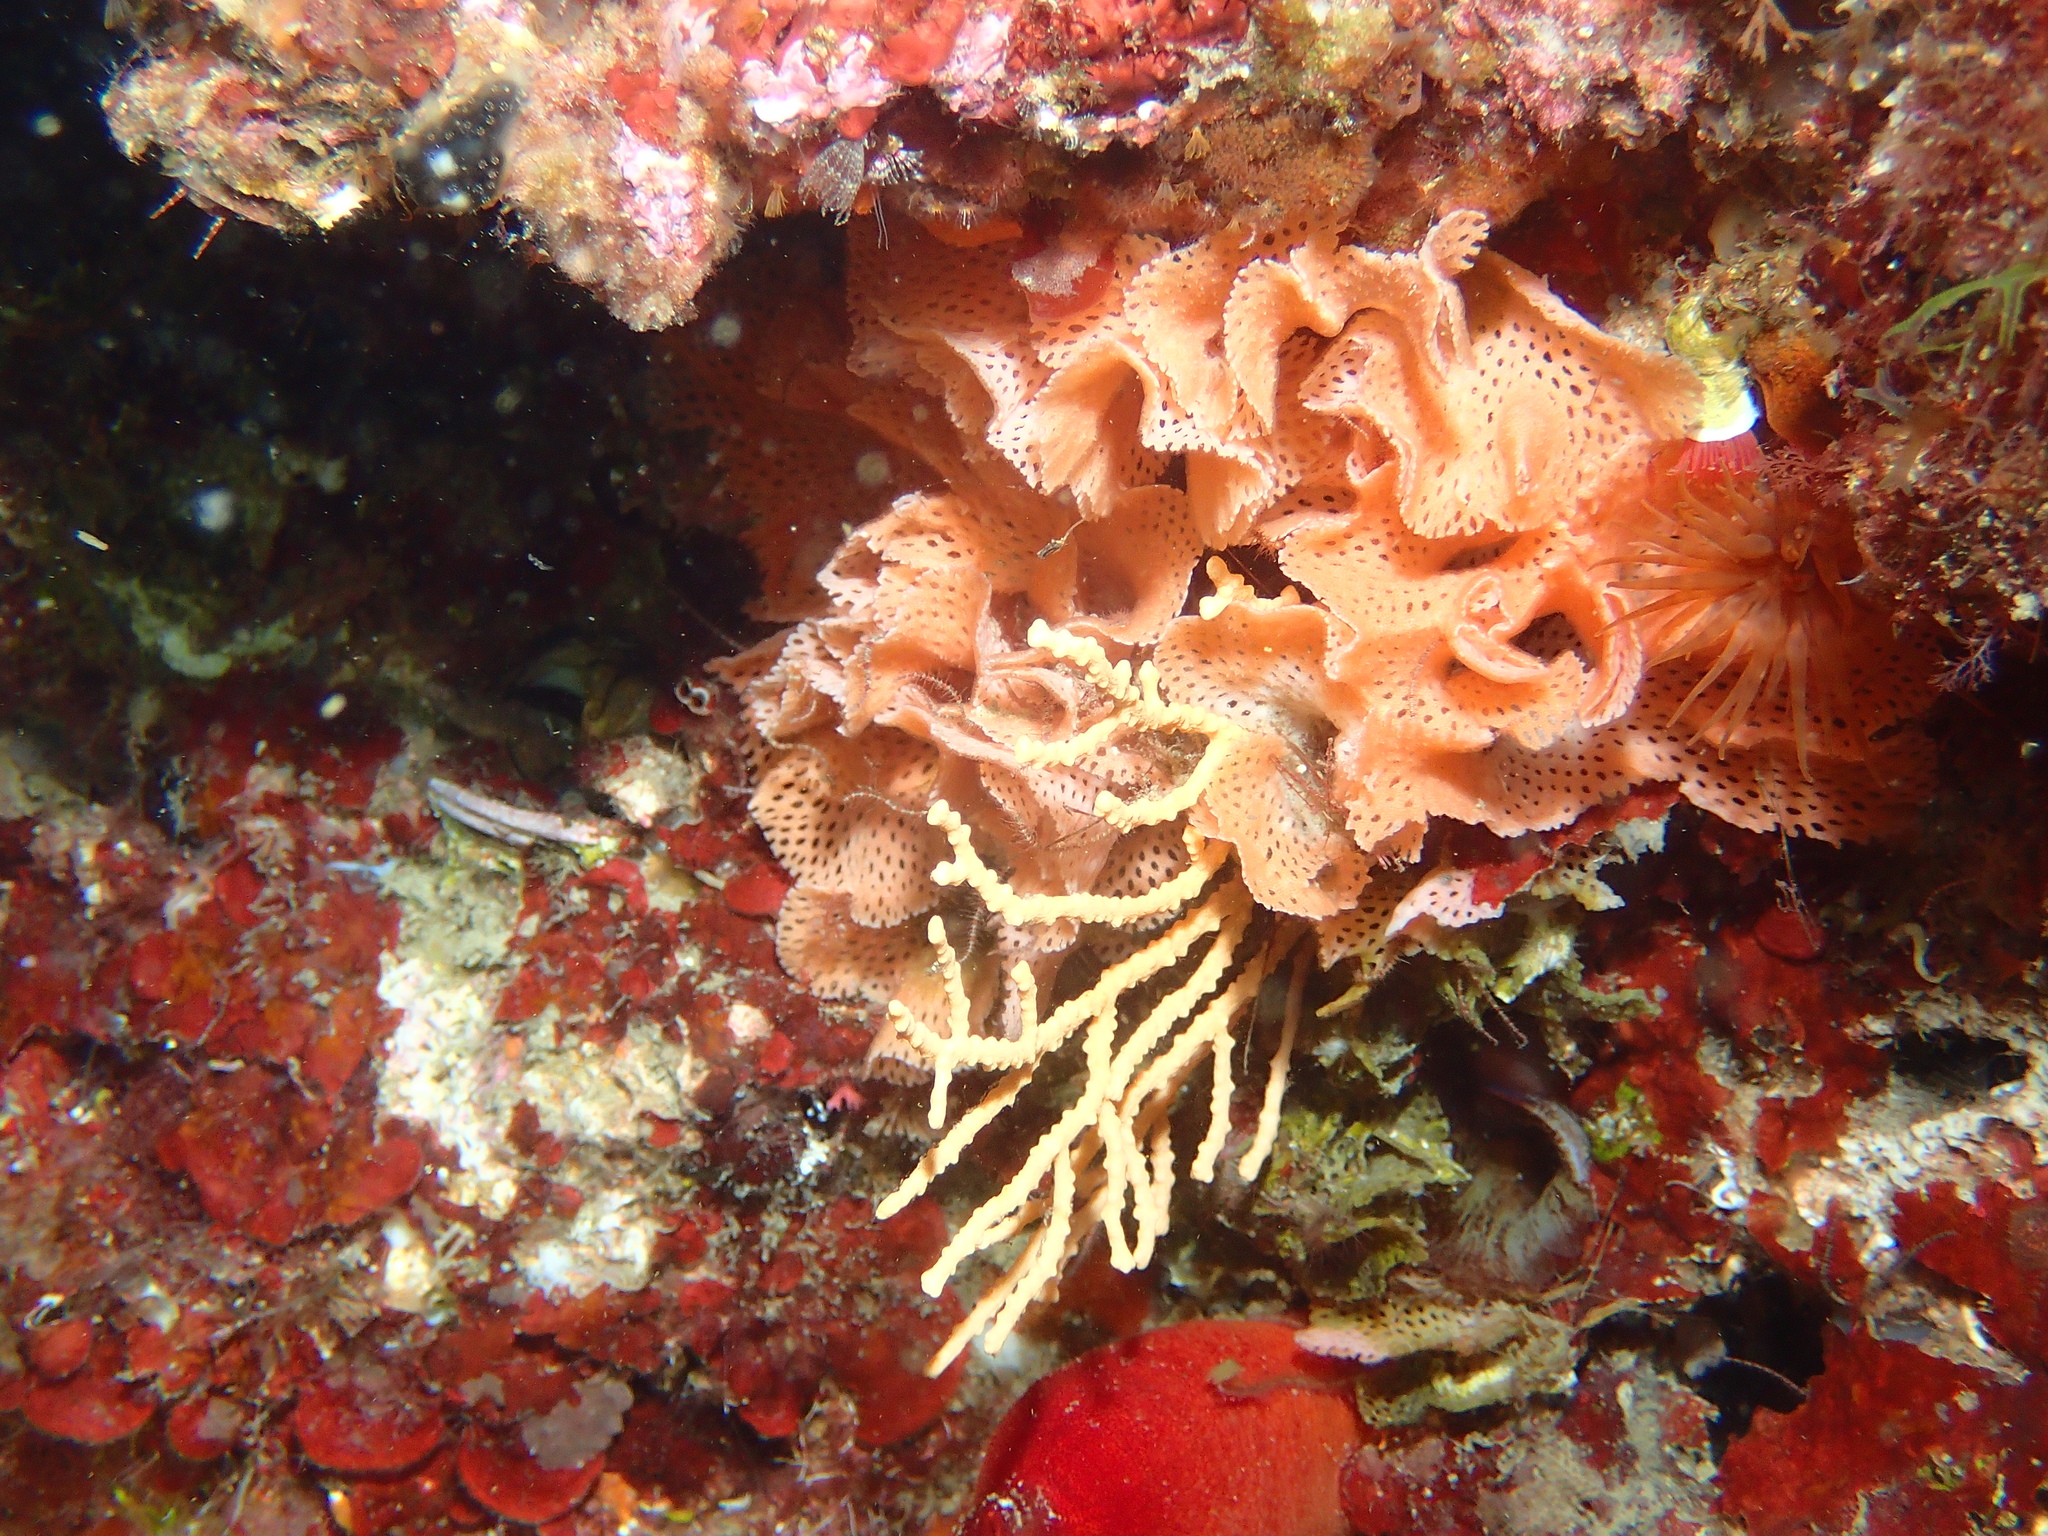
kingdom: Animalia
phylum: Bryozoa
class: Gymnolaemata
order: Cheilostomatida
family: Phidoloporidae
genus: Reteporella
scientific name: Reteporella grimaldii
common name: Neptunes' lace
